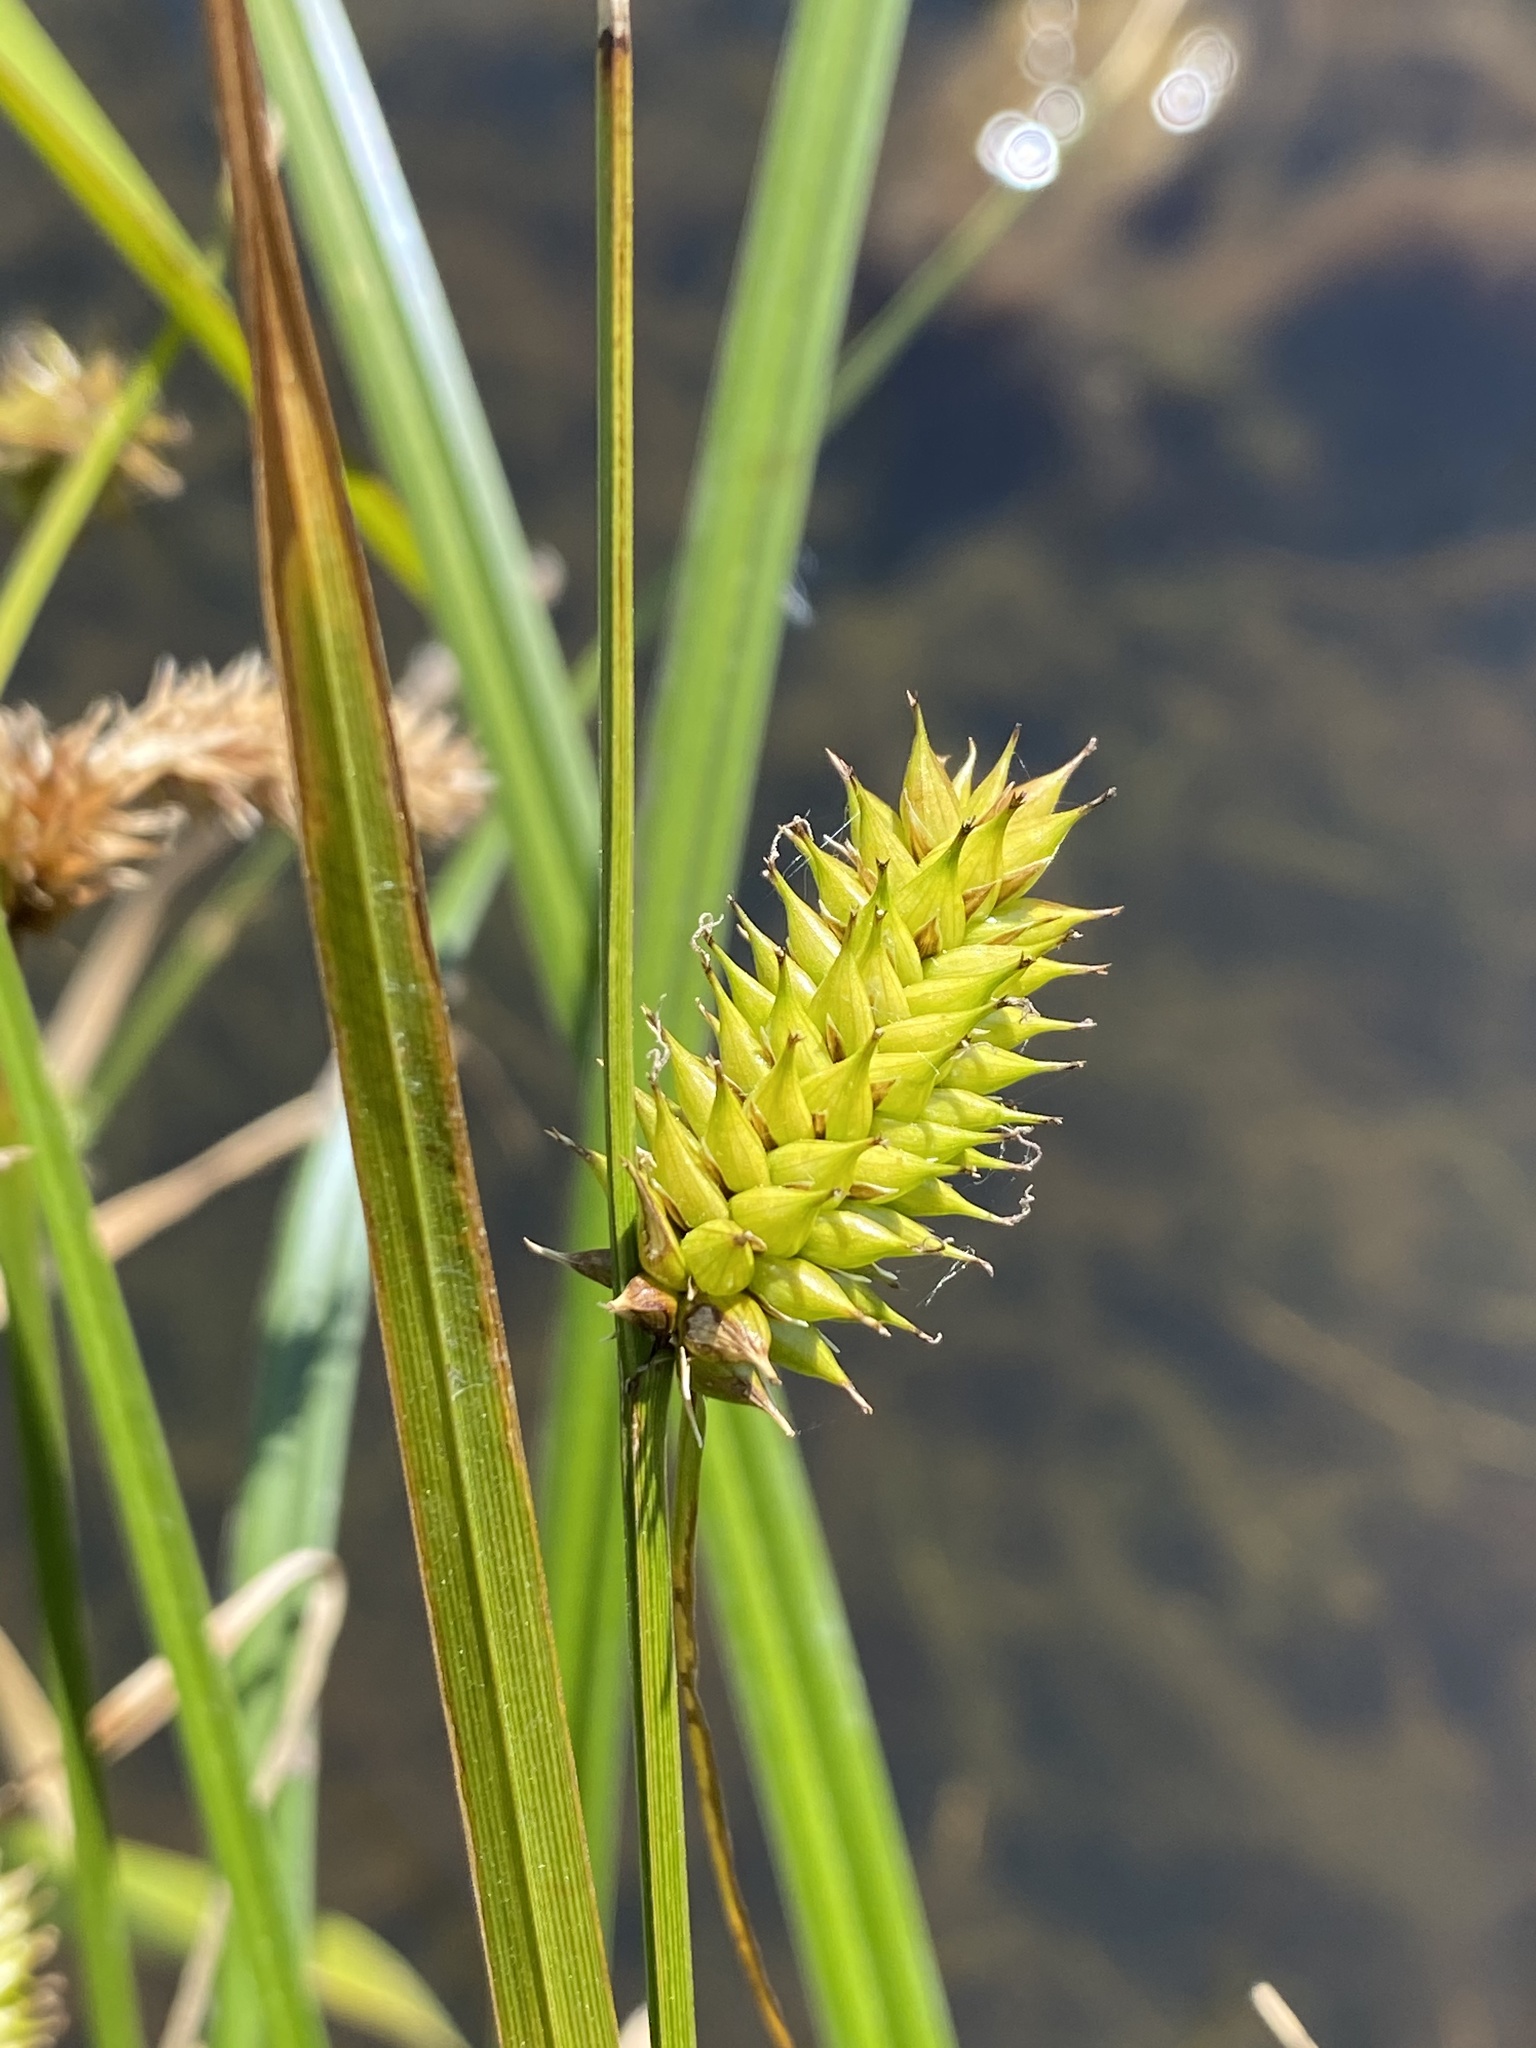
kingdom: Plantae
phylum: Tracheophyta
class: Liliopsida
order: Poales
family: Cyperaceae
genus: Carex
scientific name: Carex vesicaria
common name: Bladder-sedge
